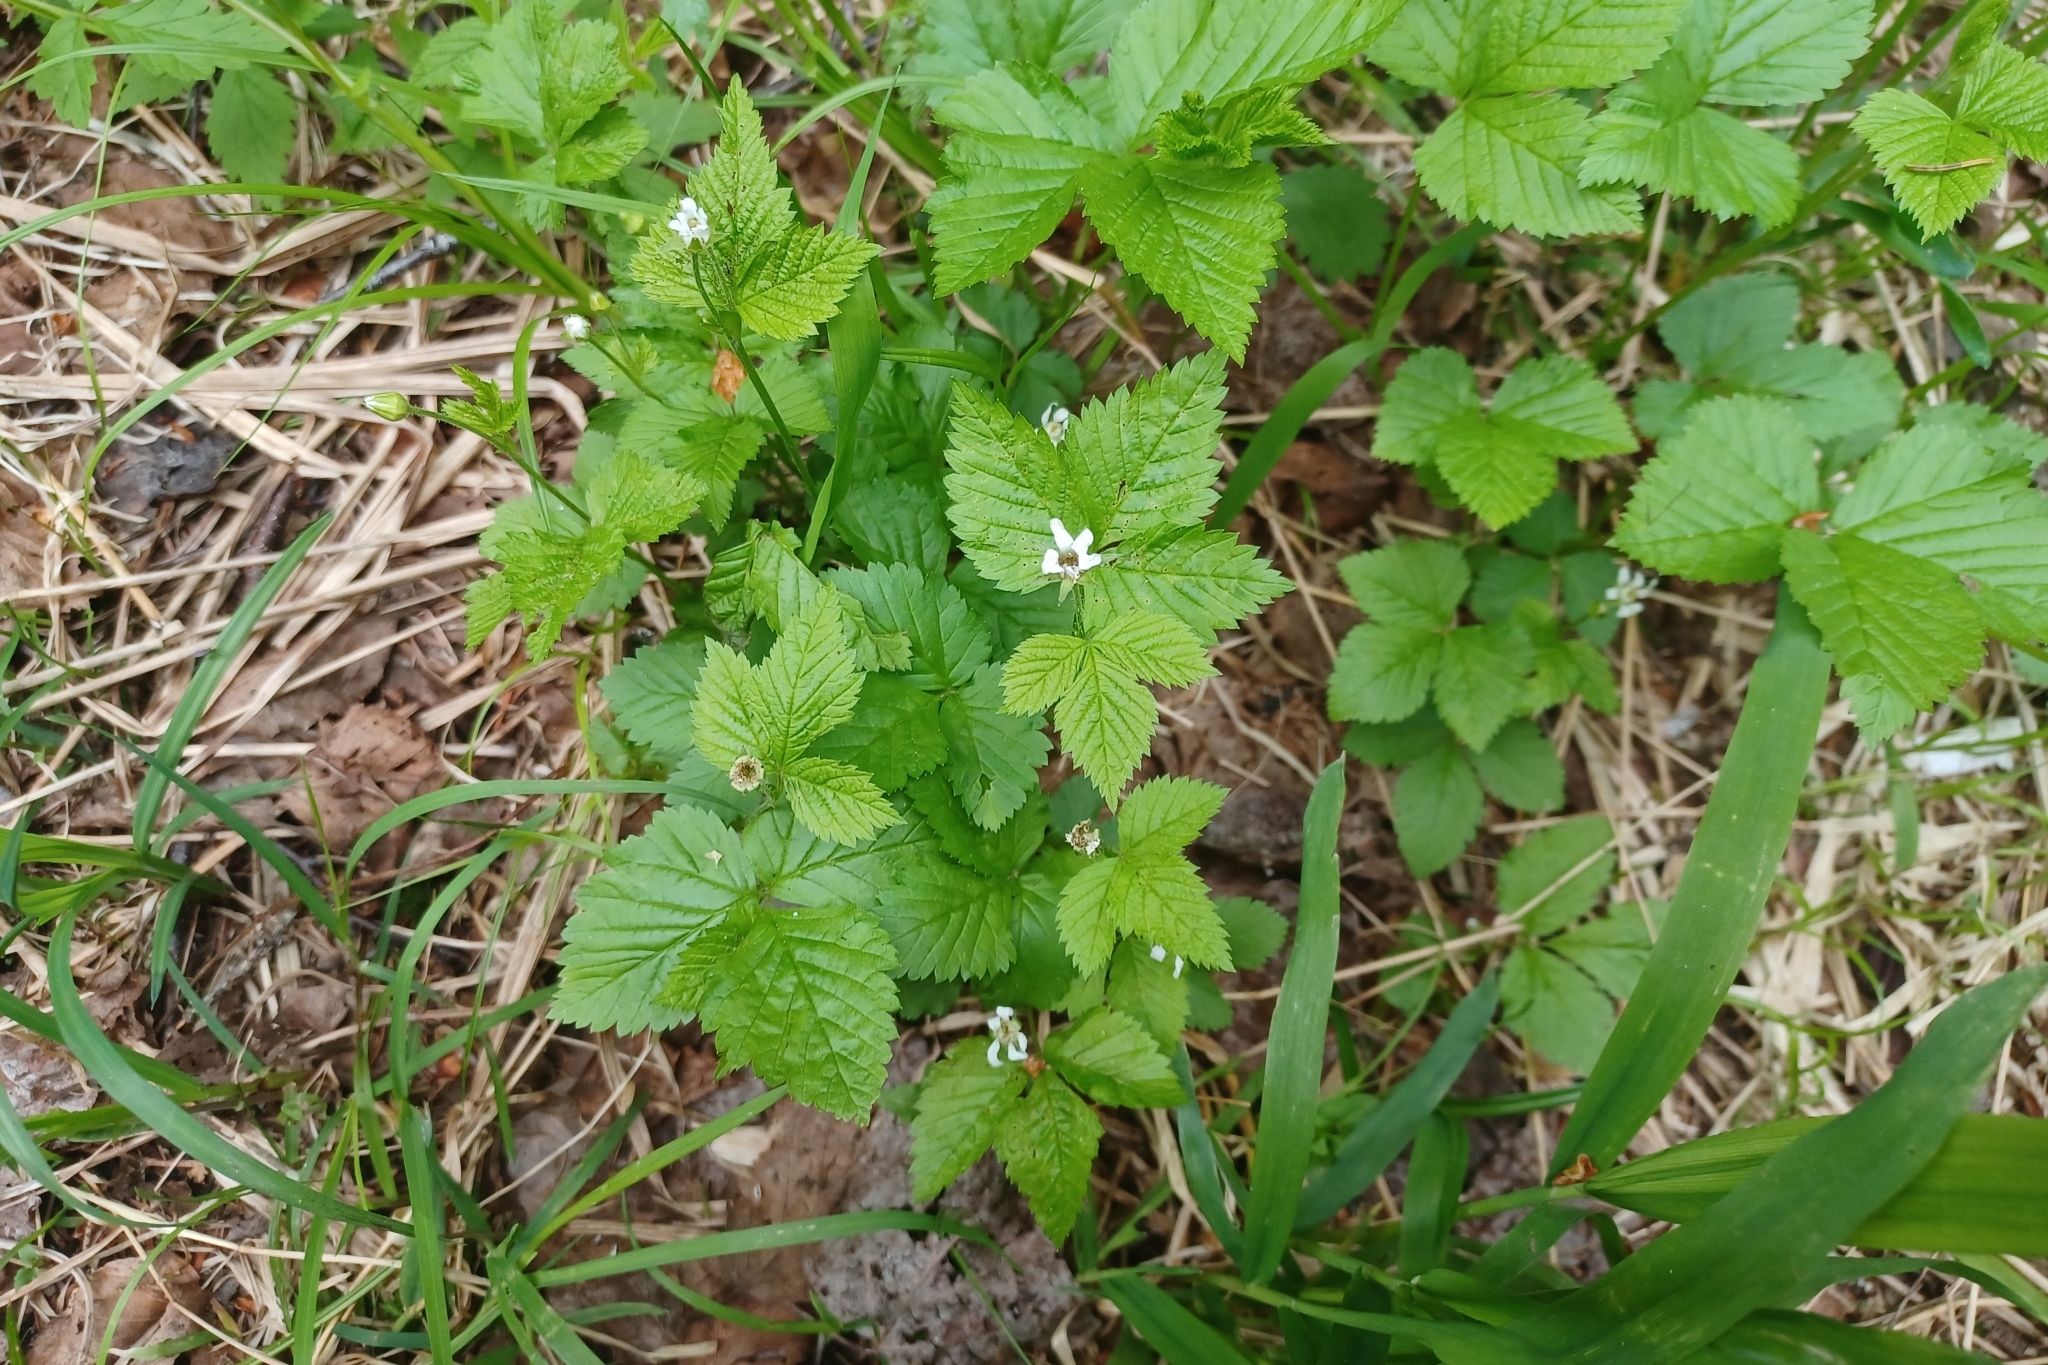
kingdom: Plantae
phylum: Tracheophyta
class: Magnoliopsida
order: Rosales
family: Rosaceae
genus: Rubus
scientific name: Rubus pubescens
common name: Dwarf raspberry
